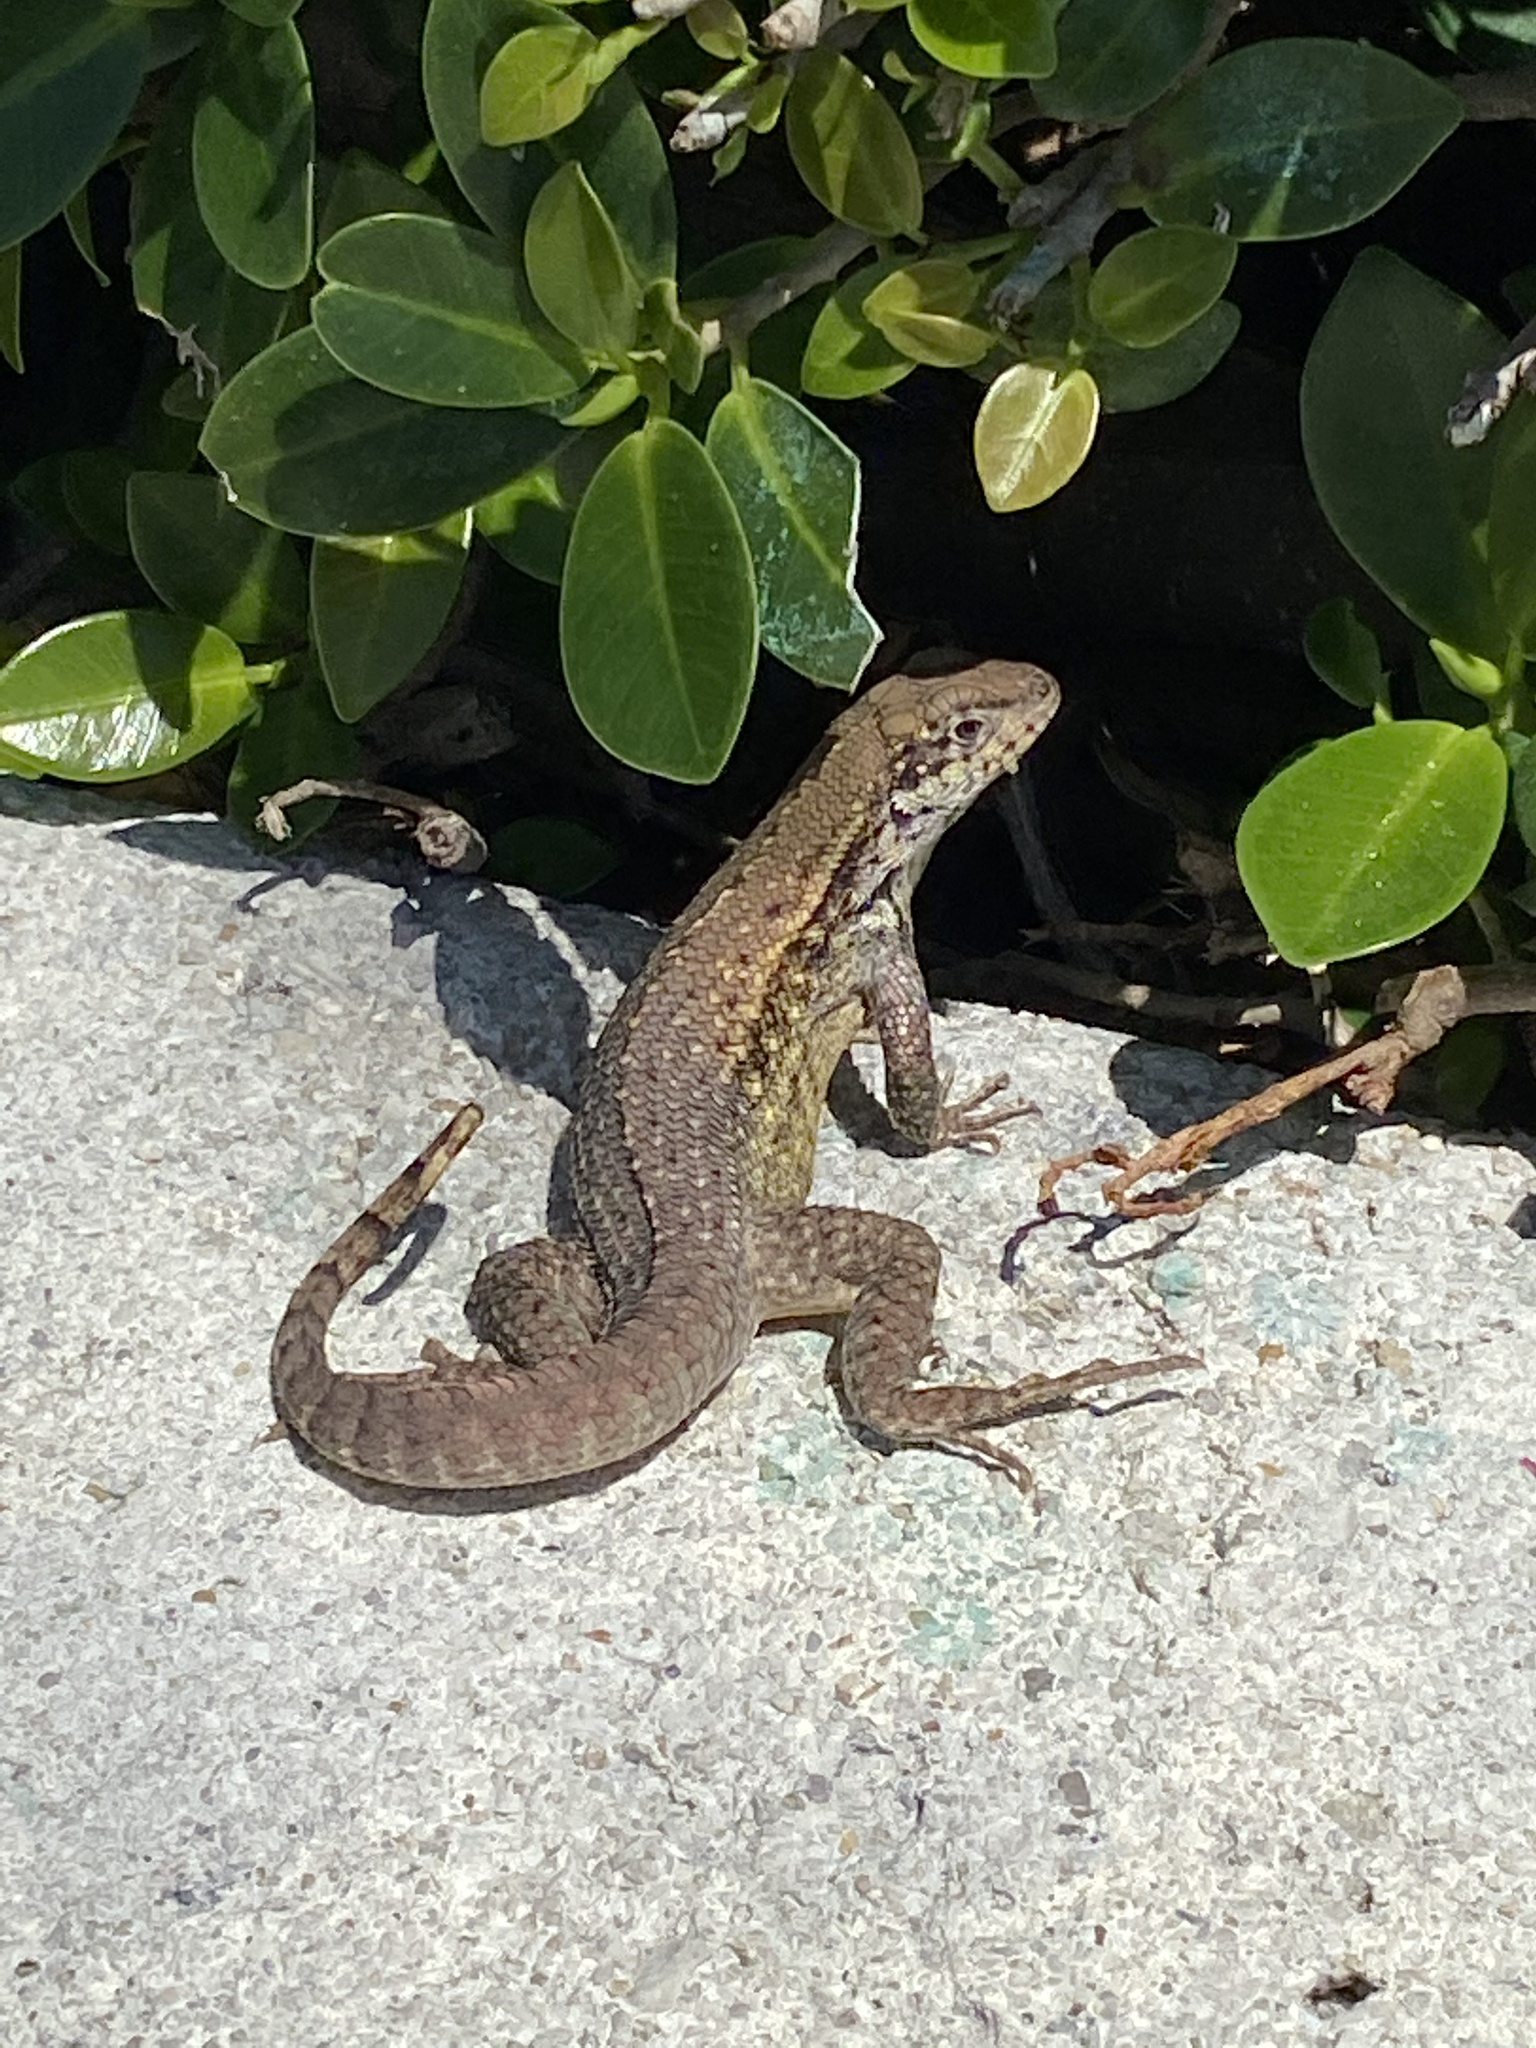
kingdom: Animalia
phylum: Chordata
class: Squamata
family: Leiocephalidae
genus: Leiocephalus
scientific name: Leiocephalus carinatus
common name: Northern curly-tailed lizard
